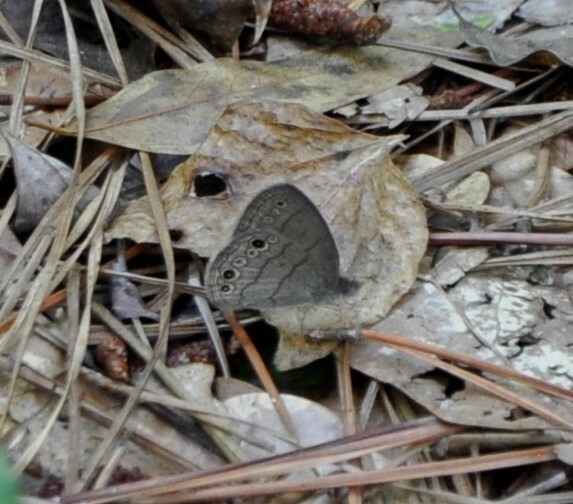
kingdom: Animalia
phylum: Arthropoda
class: Insecta
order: Lepidoptera
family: Nymphalidae
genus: Hermeuptychia
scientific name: Hermeuptychia hermes
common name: Hermes satyr
